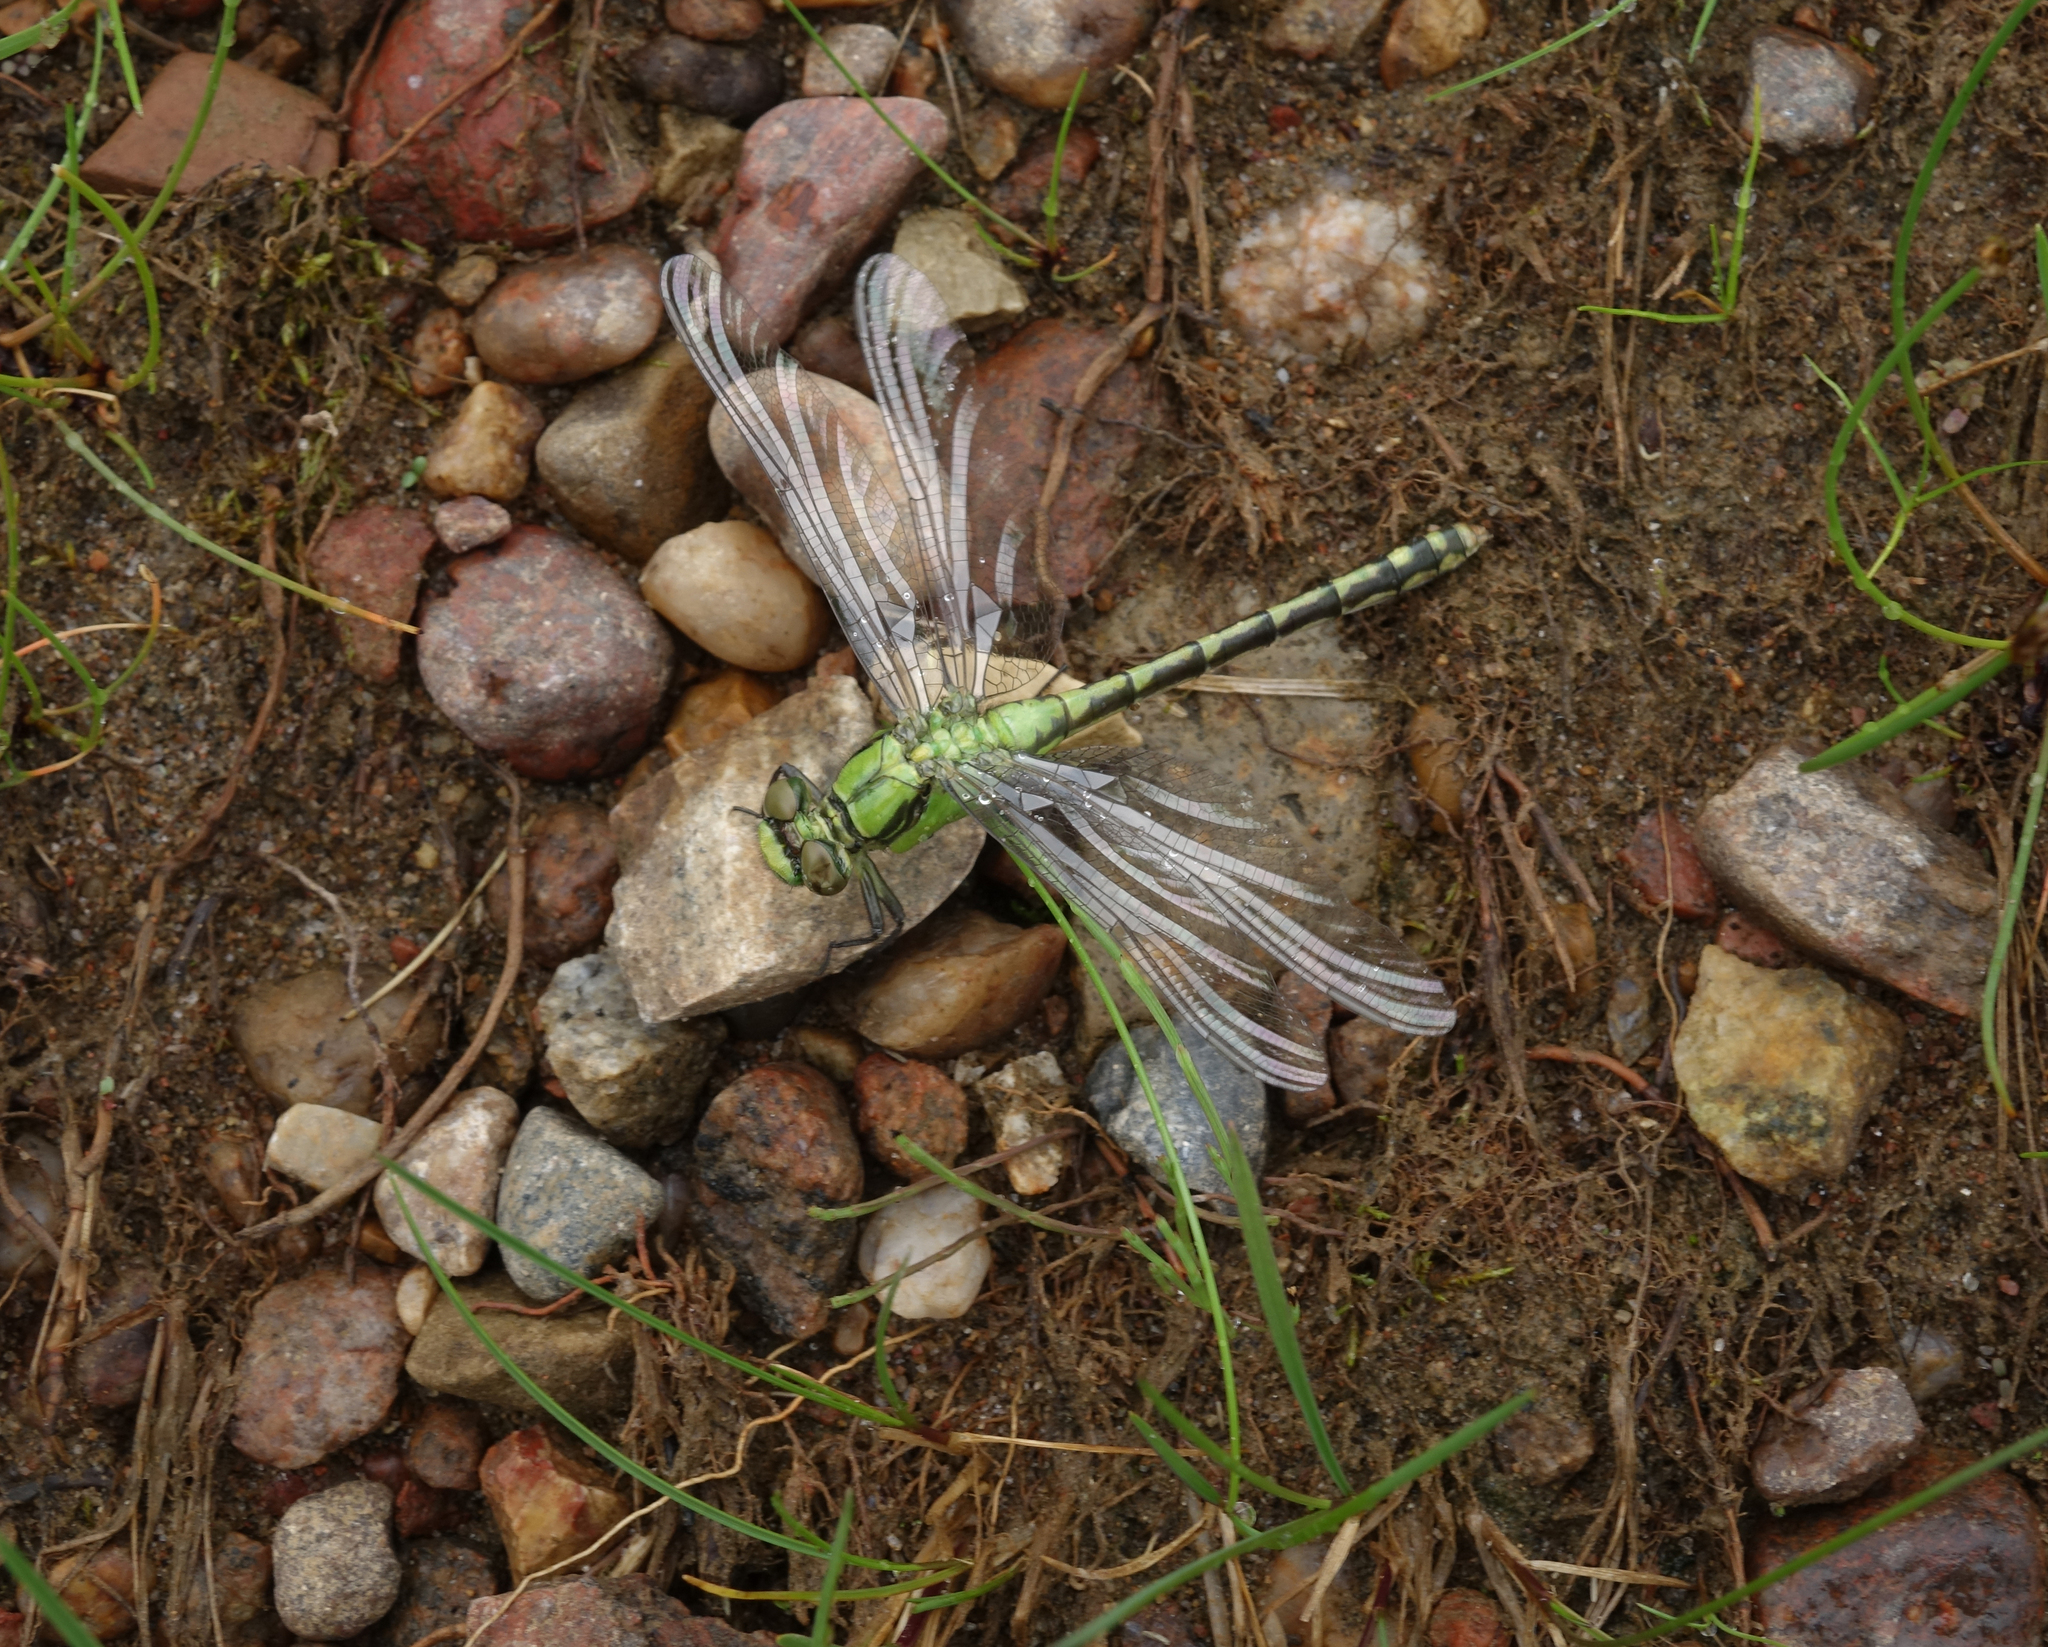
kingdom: Animalia
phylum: Arthropoda
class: Insecta
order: Odonata
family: Gomphidae
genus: Ophiogomphus
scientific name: Ophiogomphus obscurus
